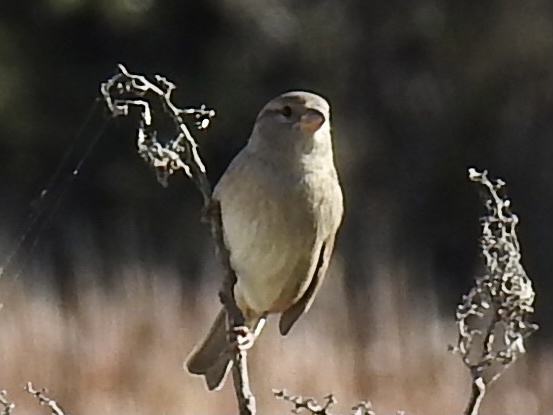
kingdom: Animalia
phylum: Chordata
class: Aves
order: Passeriformes
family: Passeridae
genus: Passer
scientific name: Passer domesticus
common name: House sparrow
